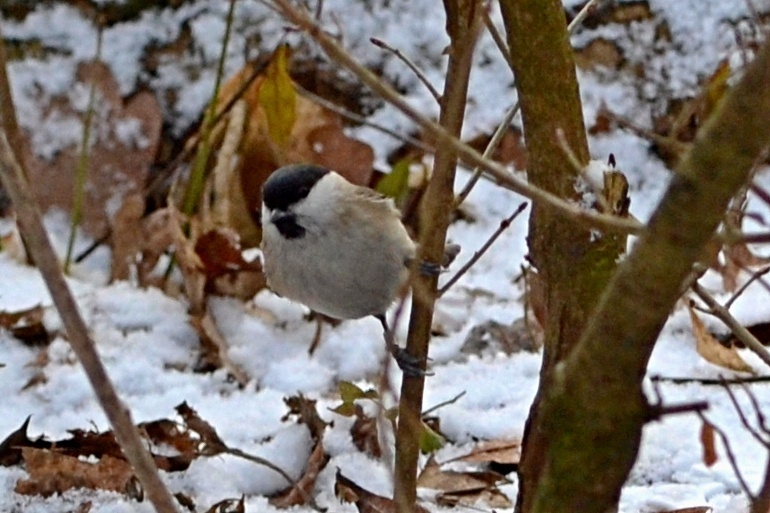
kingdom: Animalia
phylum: Chordata
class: Aves
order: Passeriformes
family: Paridae
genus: Poecile
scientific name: Poecile palustris
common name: Marsh tit
